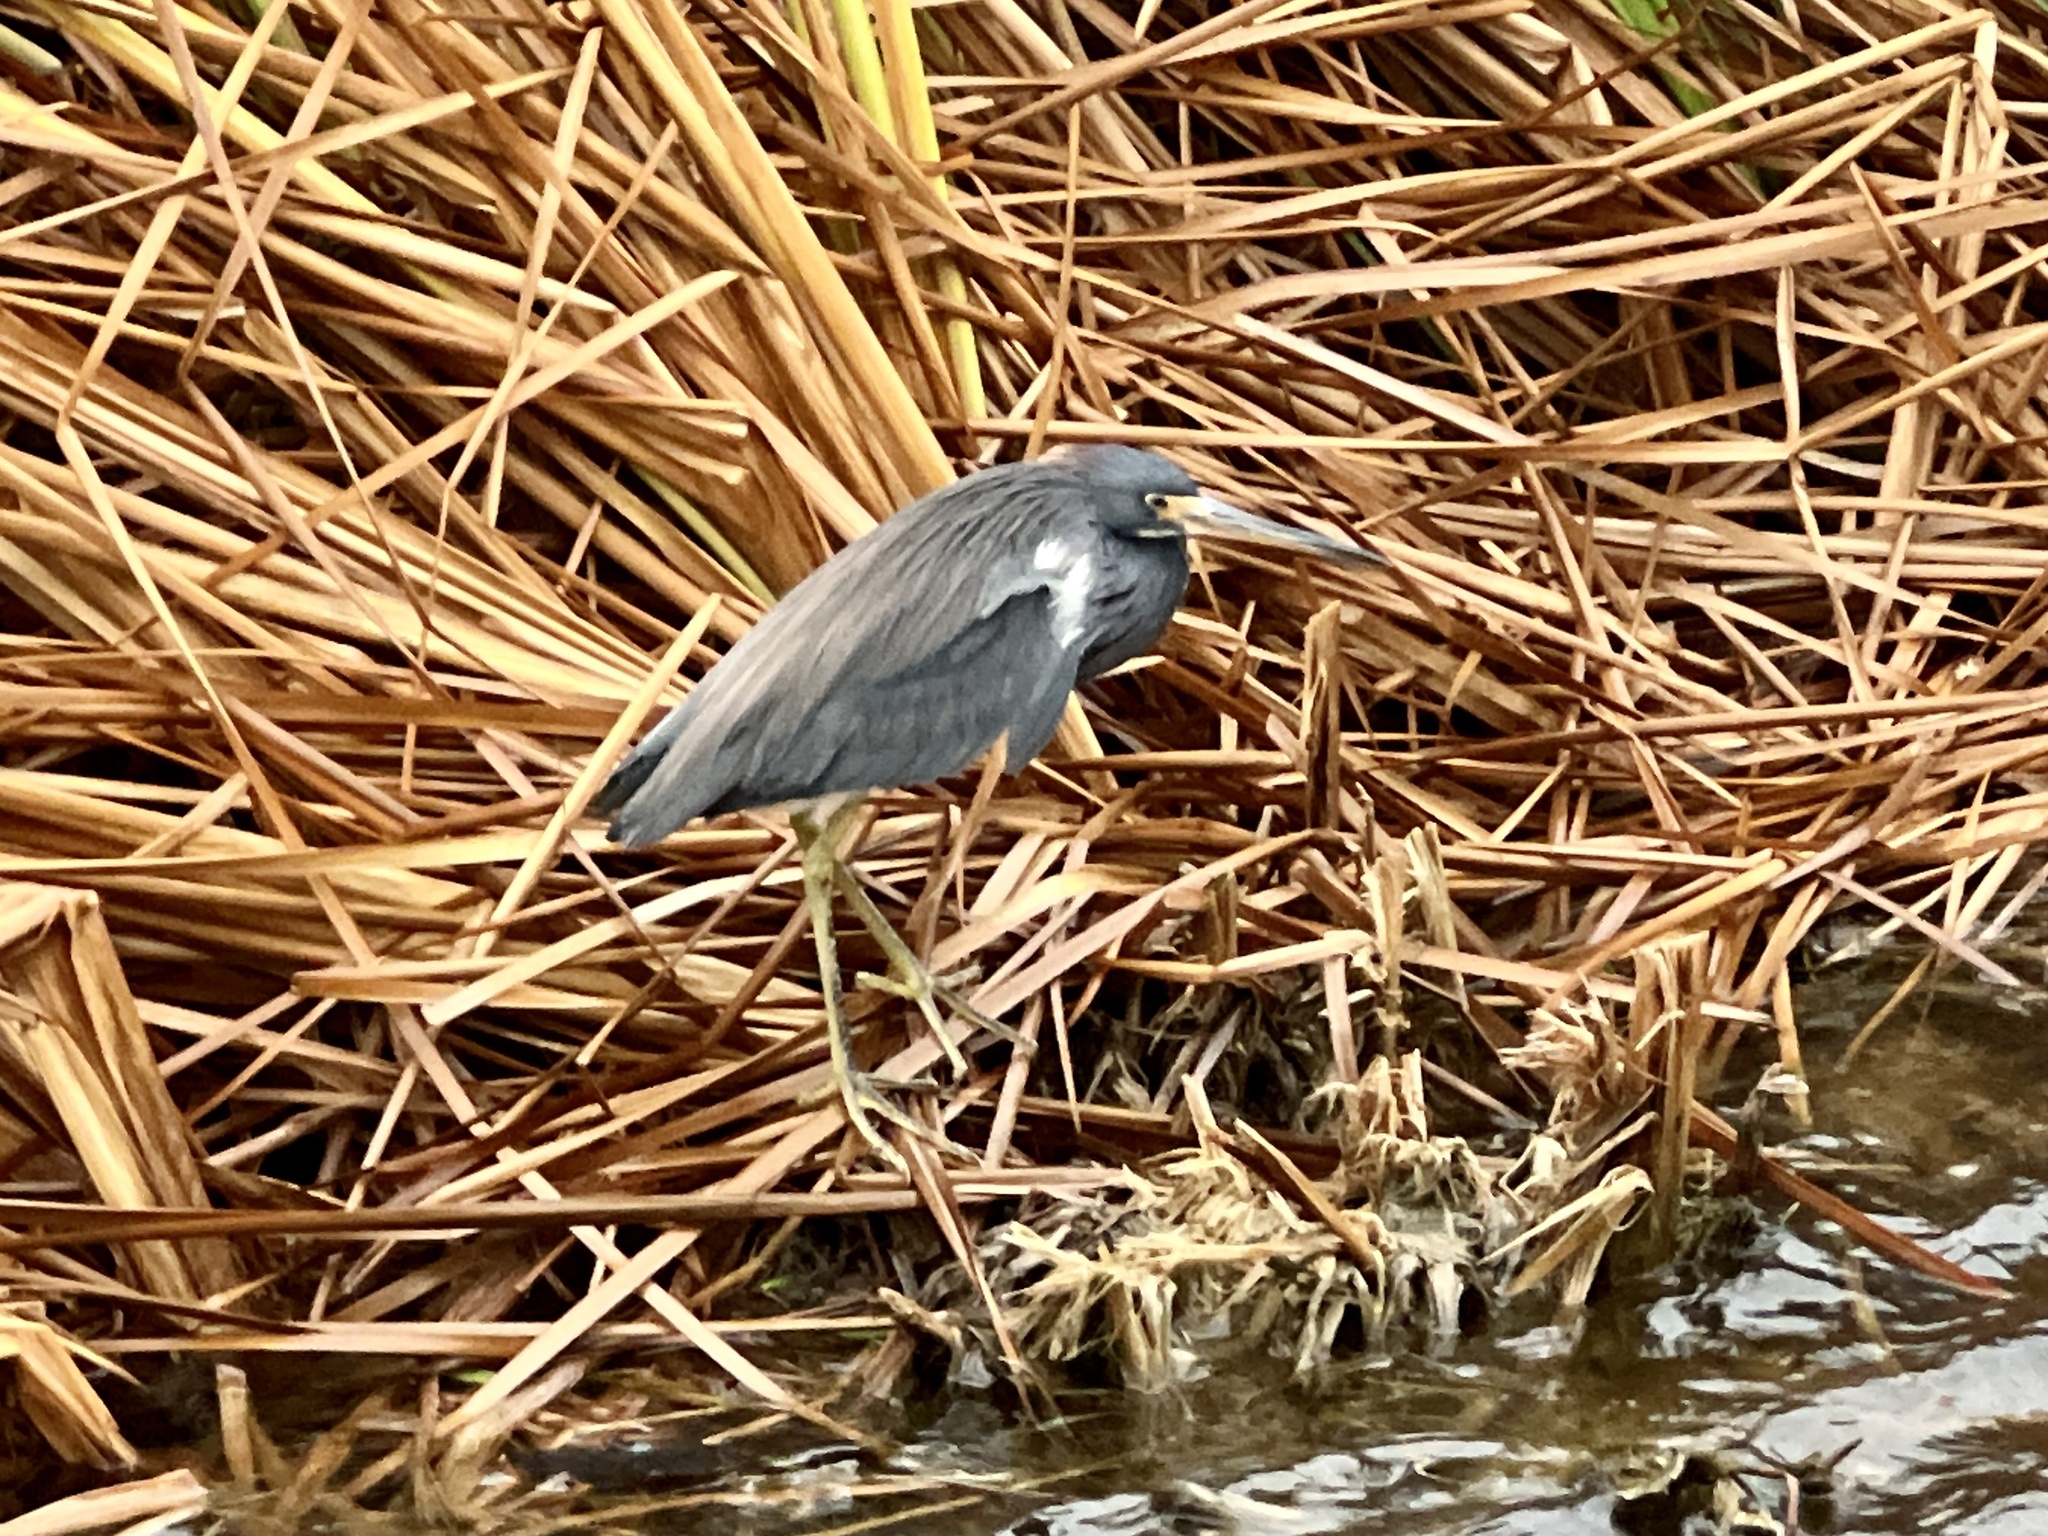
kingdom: Animalia
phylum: Chordata
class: Aves
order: Pelecaniformes
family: Ardeidae
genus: Egretta
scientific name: Egretta tricolor
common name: Tricolored heron
